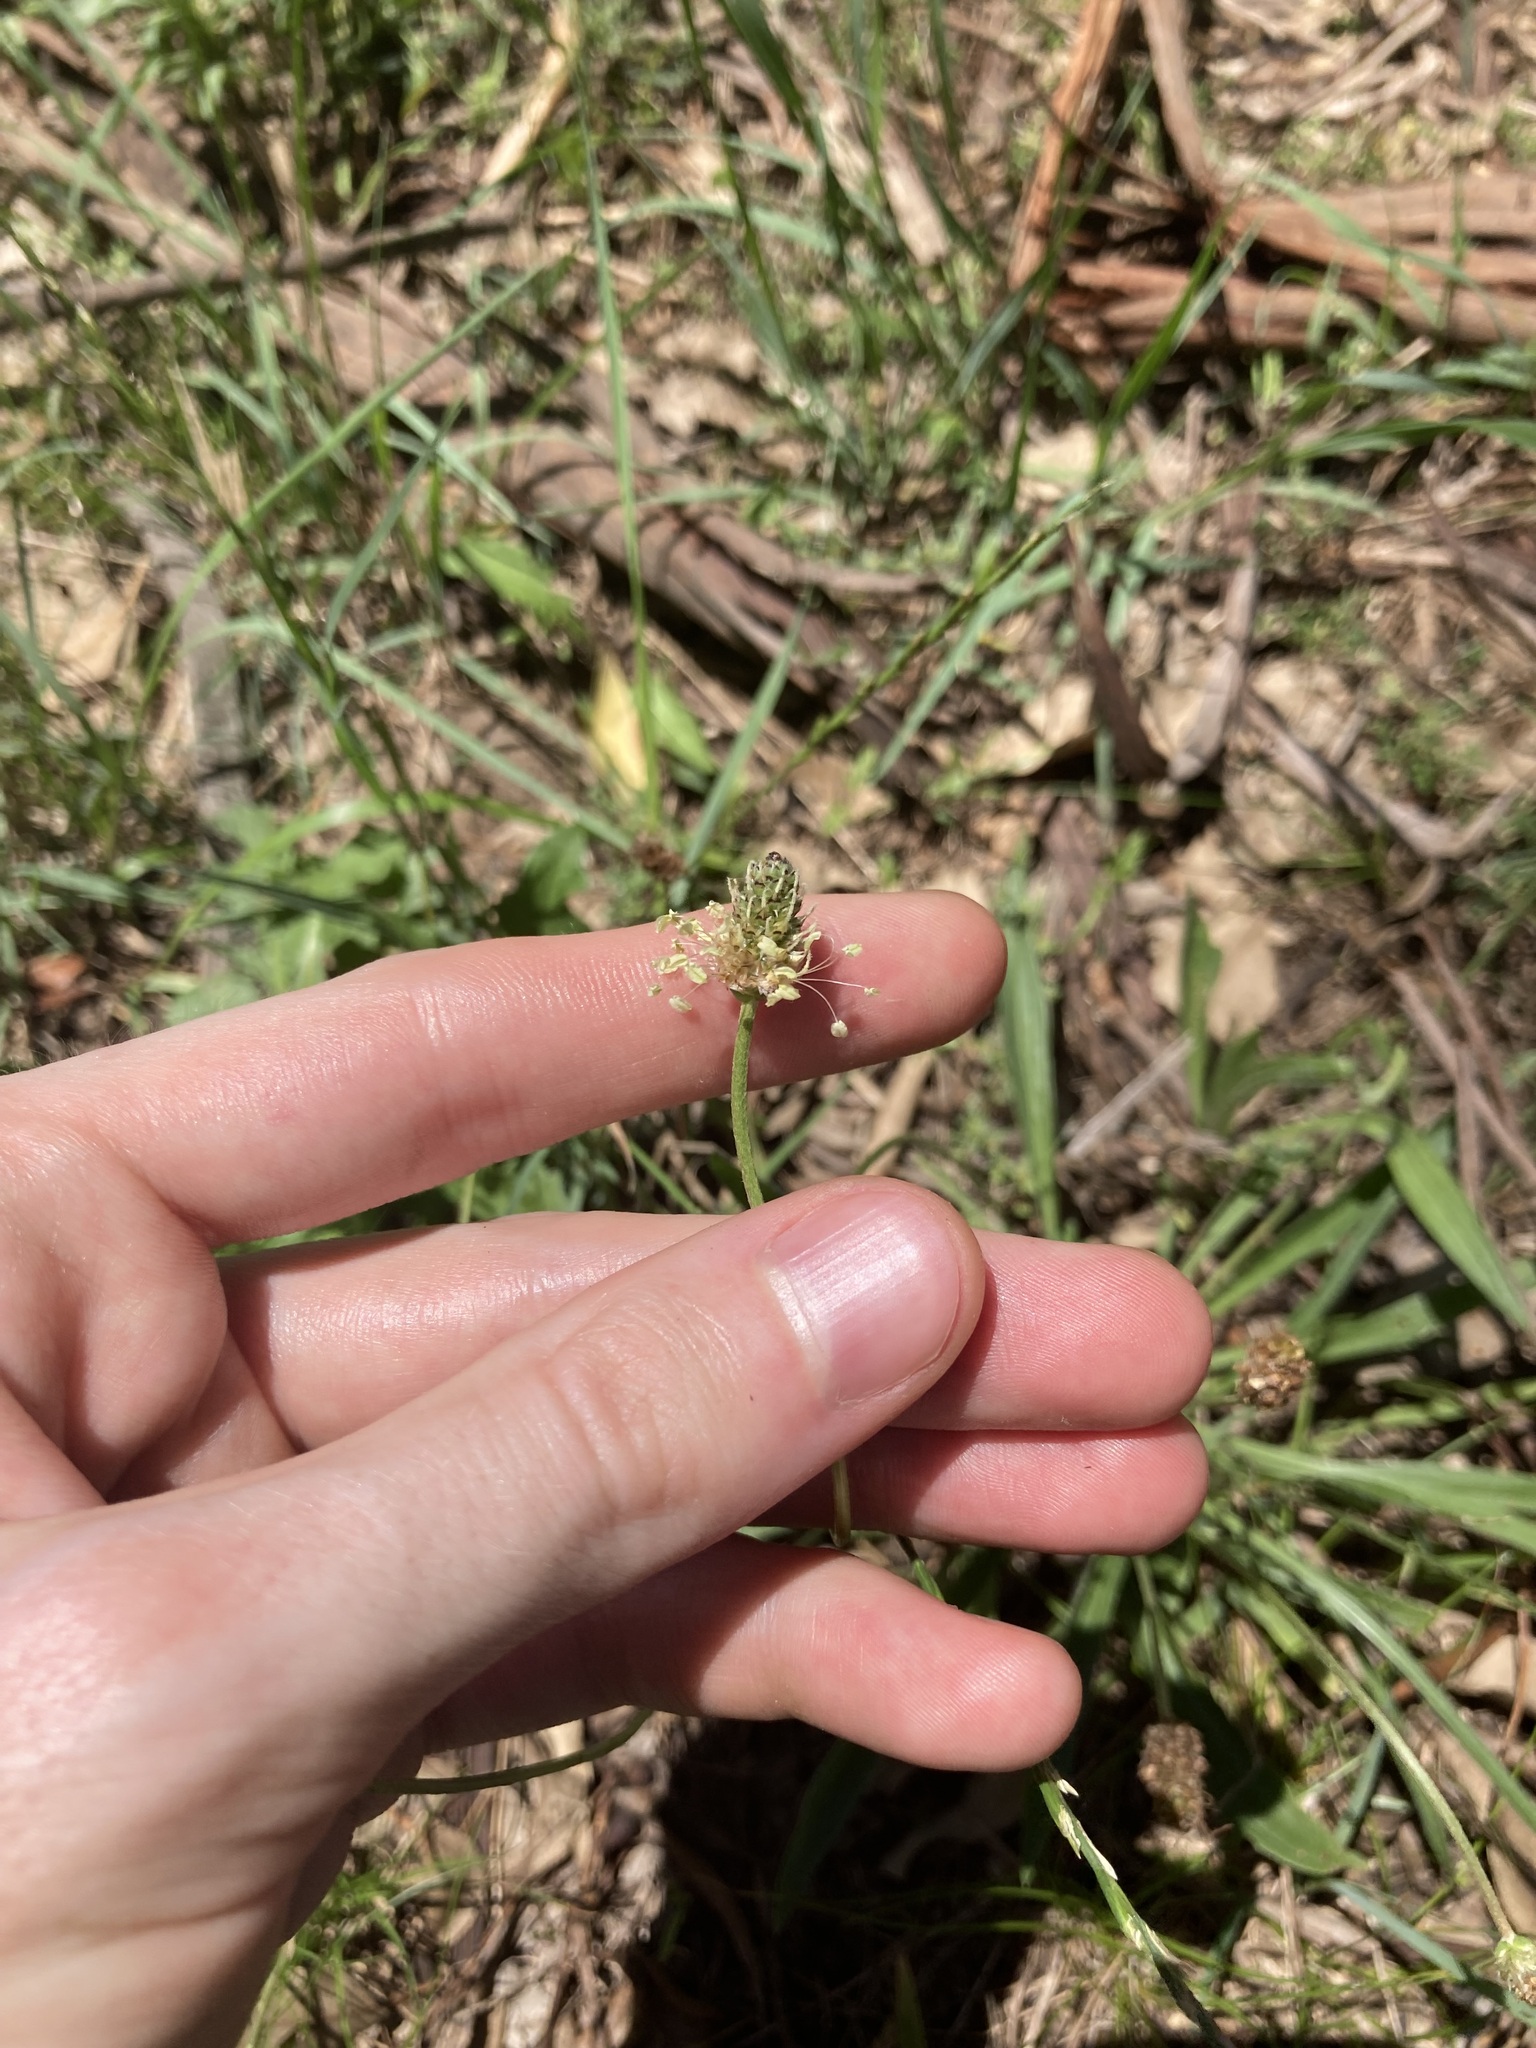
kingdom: Plantae
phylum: Tracheophyta
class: Magnoliopsida
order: Lamiales
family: Plantaginaceae
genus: Plantago
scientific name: Plantago lanceolata
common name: Ribwort plantain
